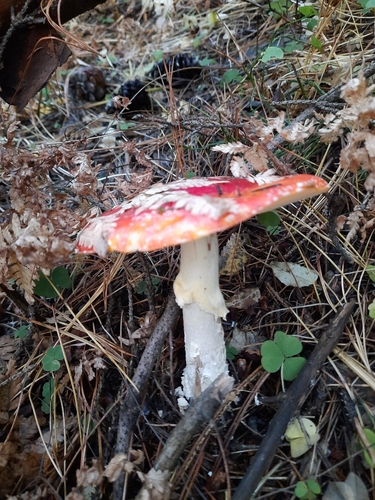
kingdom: Fungi
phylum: Basidiomycota
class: Agaricomycetes
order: Agaricales
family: Amanitaceae
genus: Amanita
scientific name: Amanita muscaria
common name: Fly agaric
